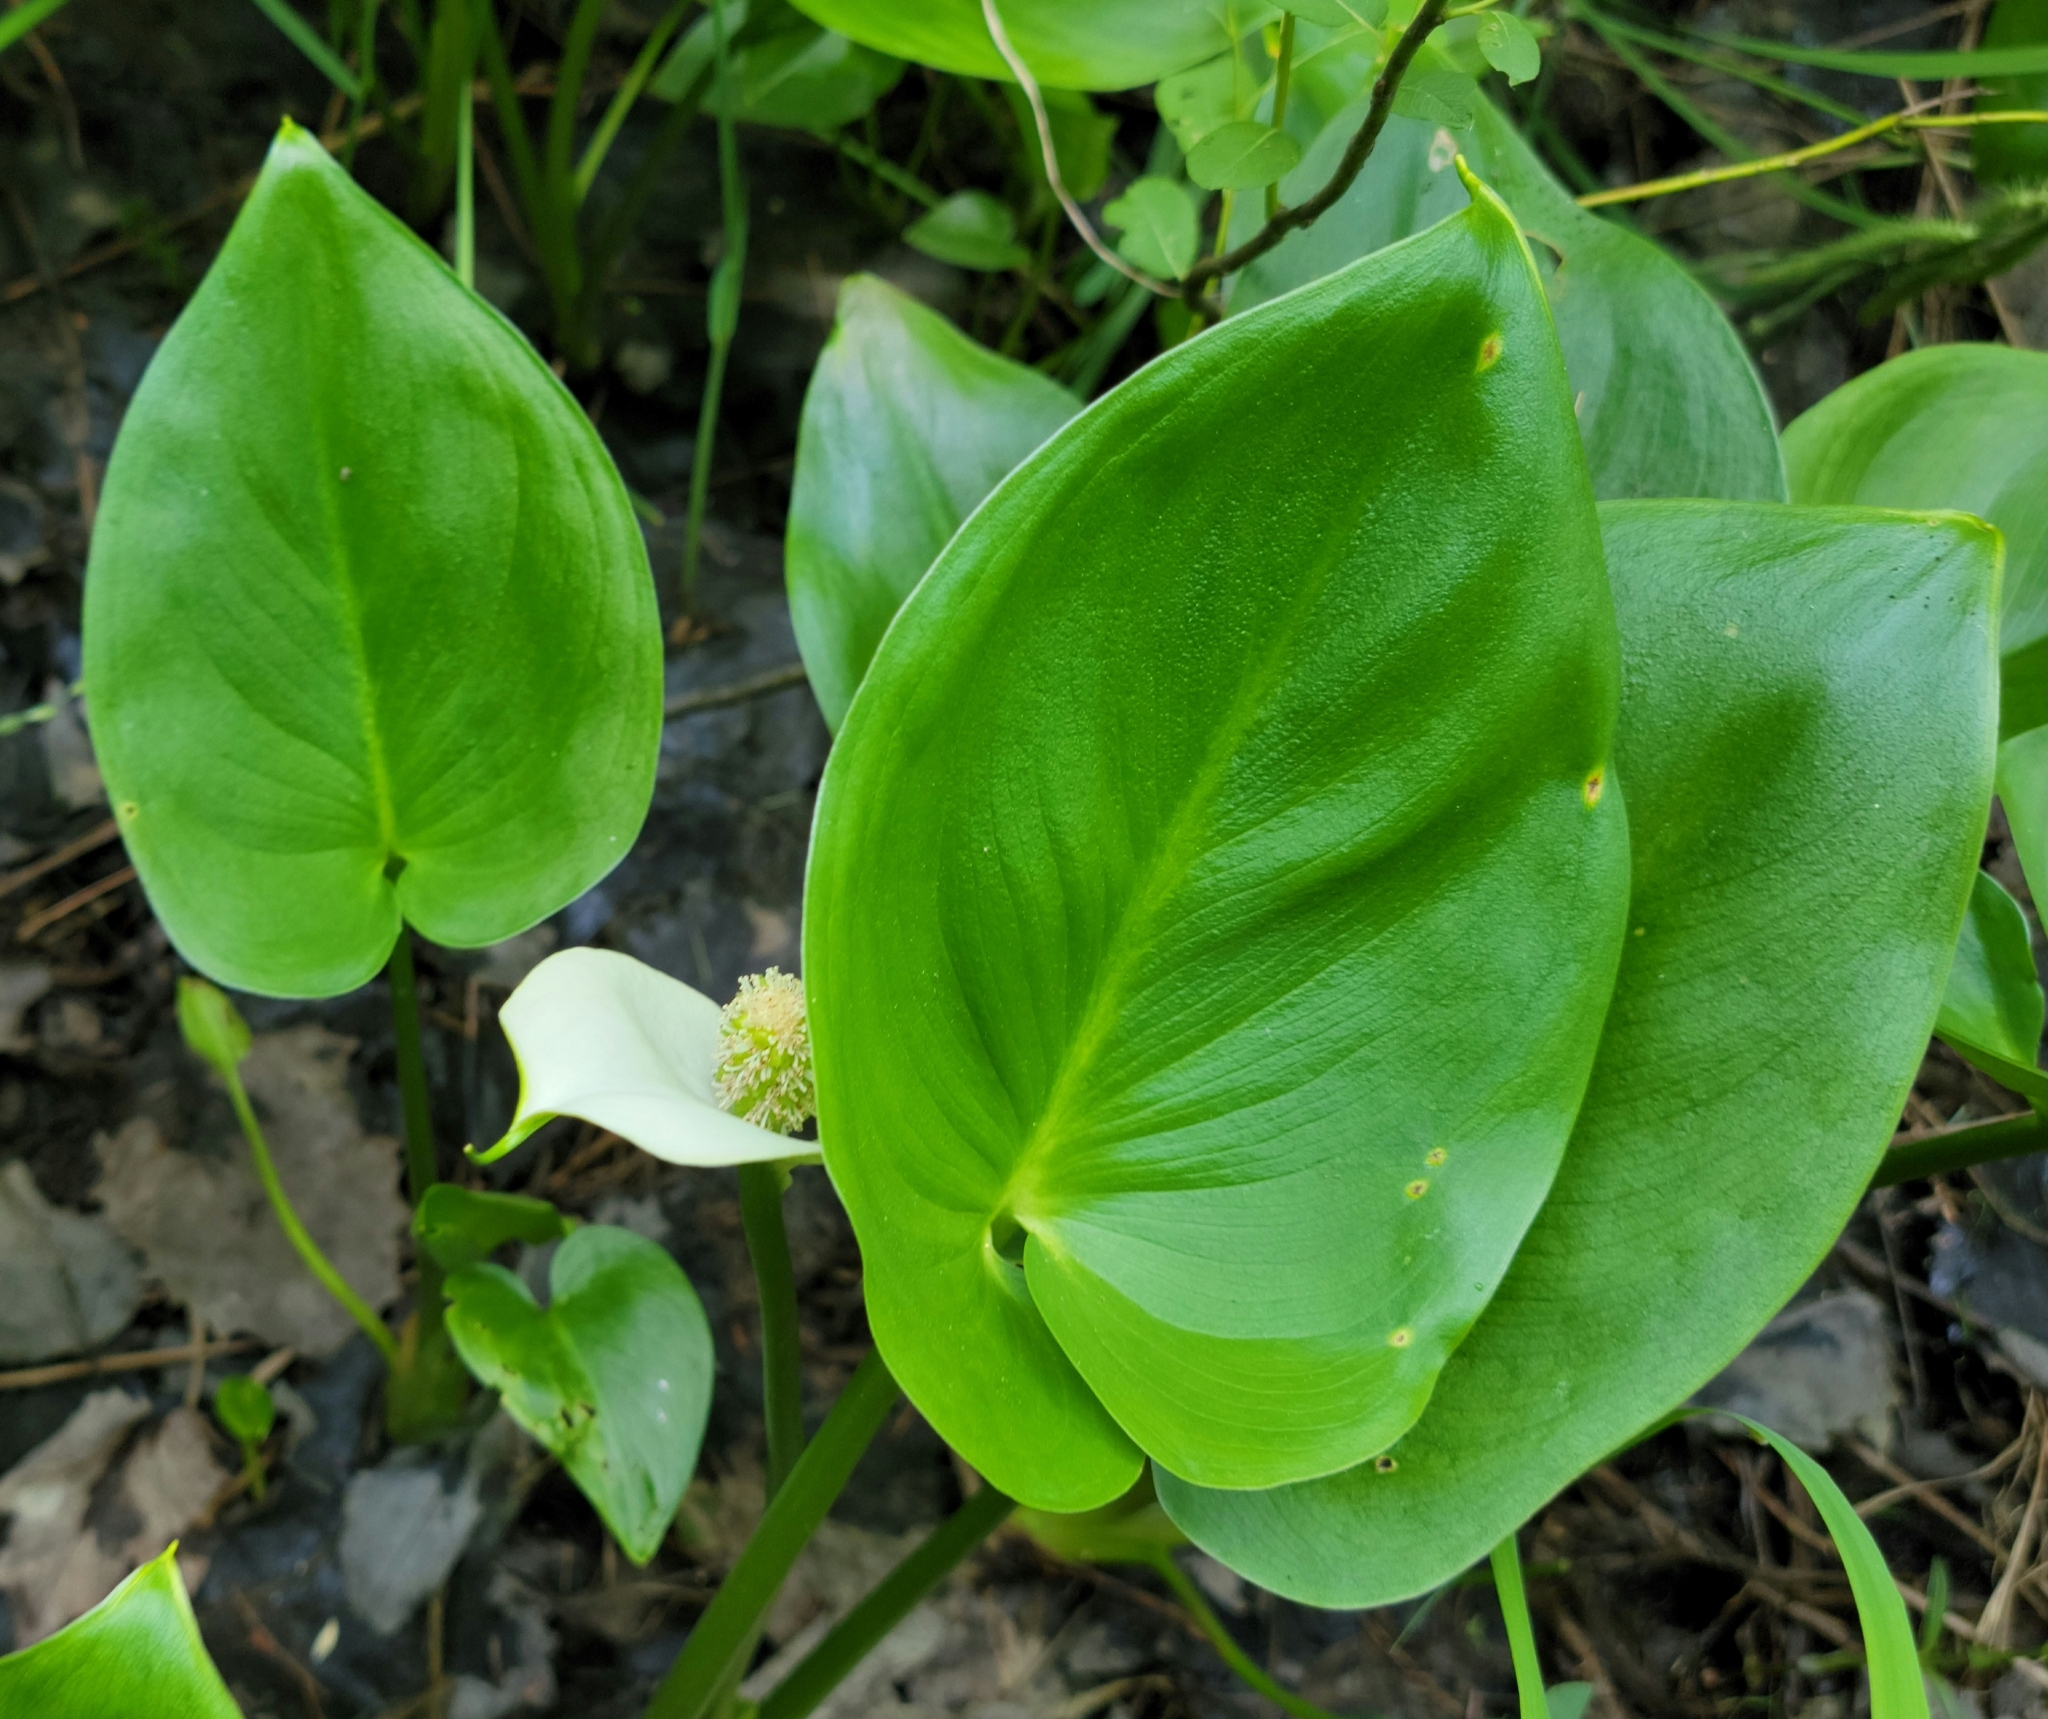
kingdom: Plantae
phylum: Tracheophyta
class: Liliopsida
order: Alismatales
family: Araceae
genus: Calla
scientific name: Calla palustris
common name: Bog arum
